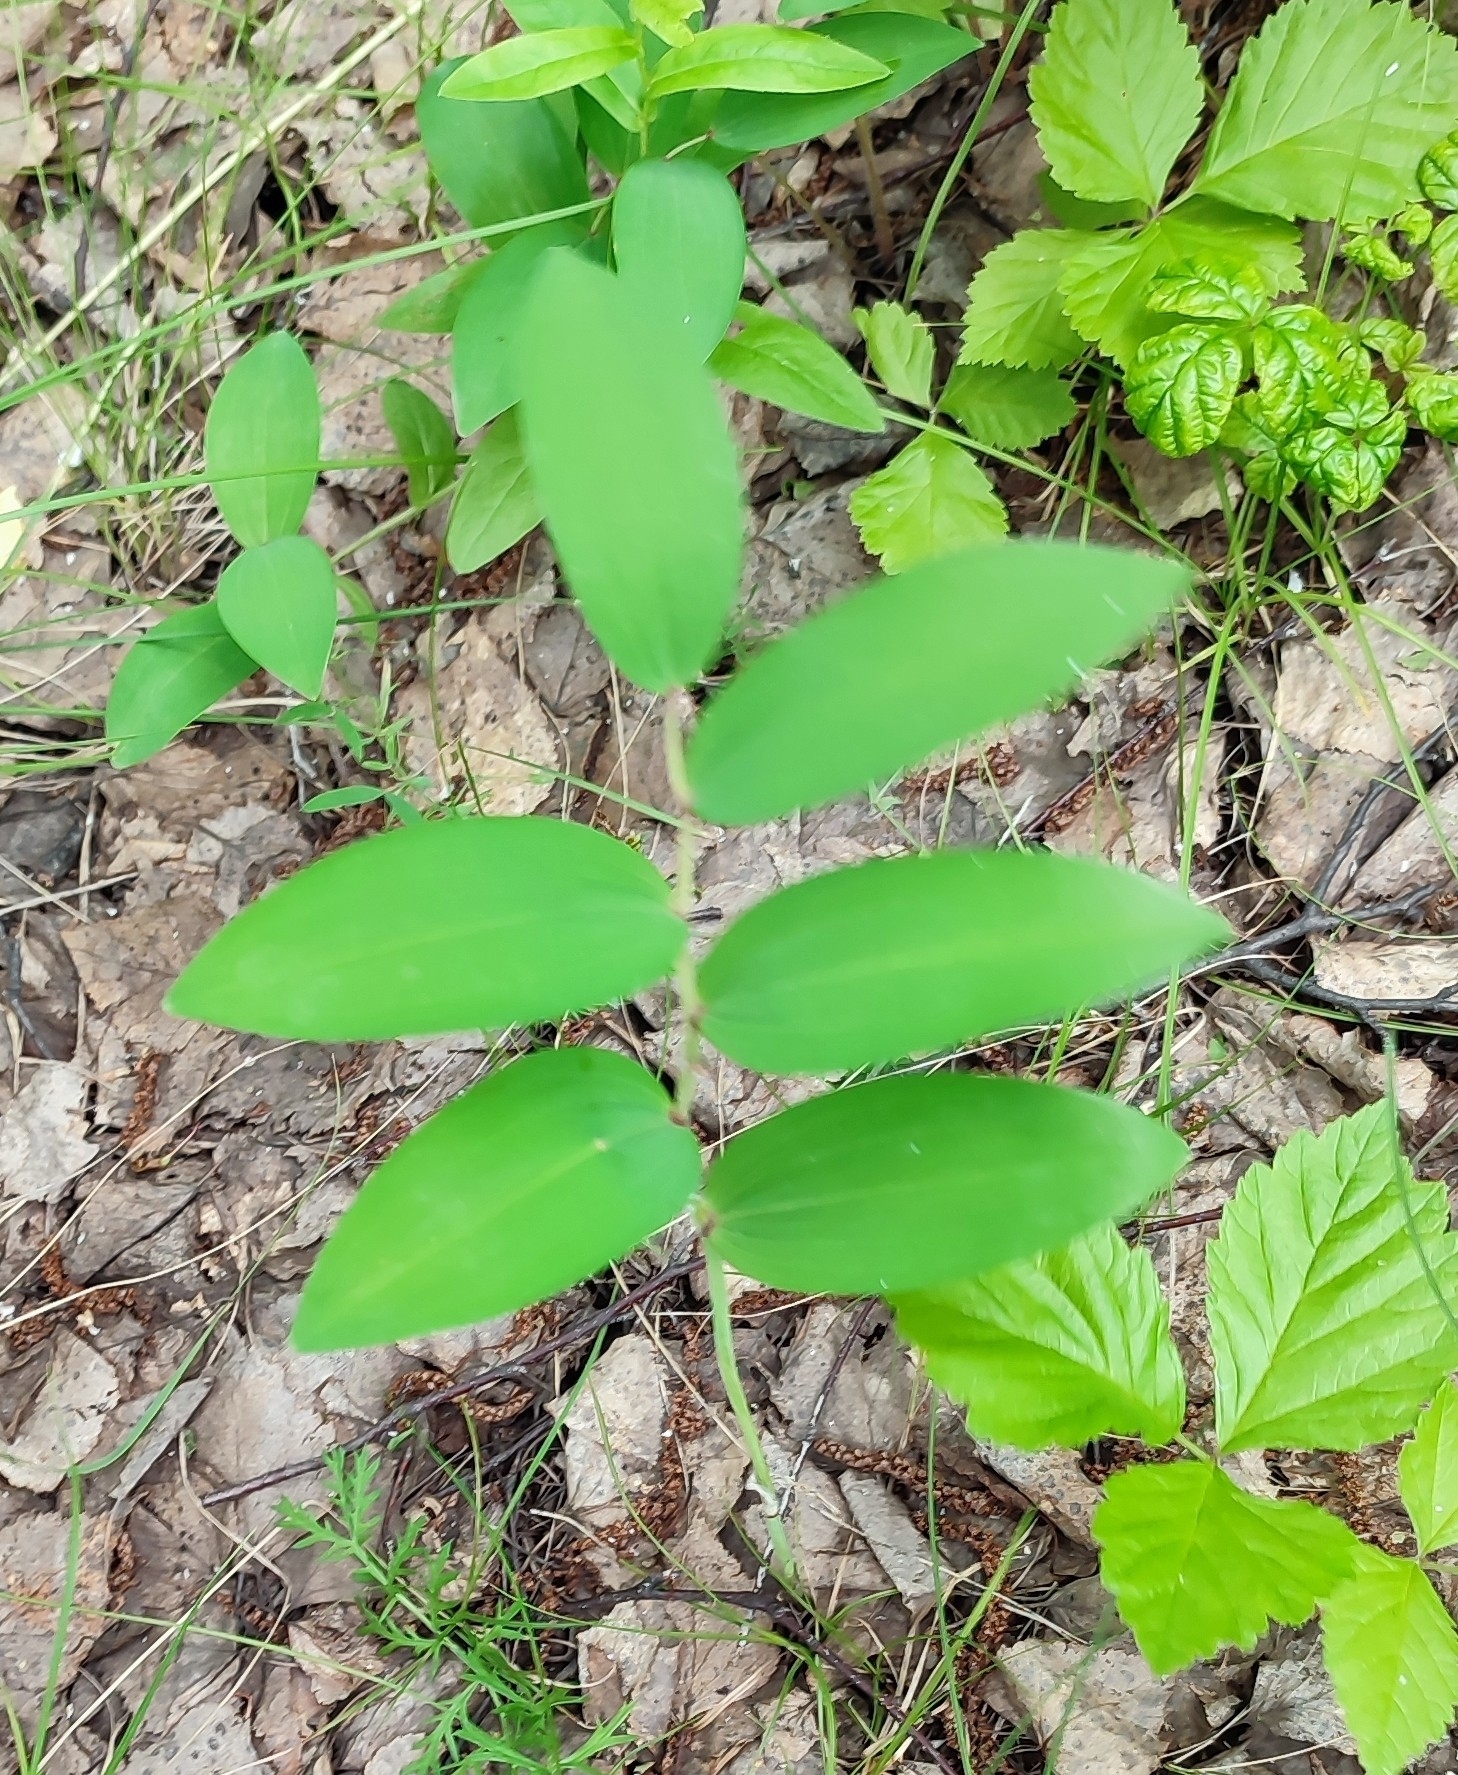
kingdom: Plantae
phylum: Tracheophyta
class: Liliopsida
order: Asparagales
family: Asparagaceae
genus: Polygonatum
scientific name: Polygonatum odoratum
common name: Angular solomon's-seal
